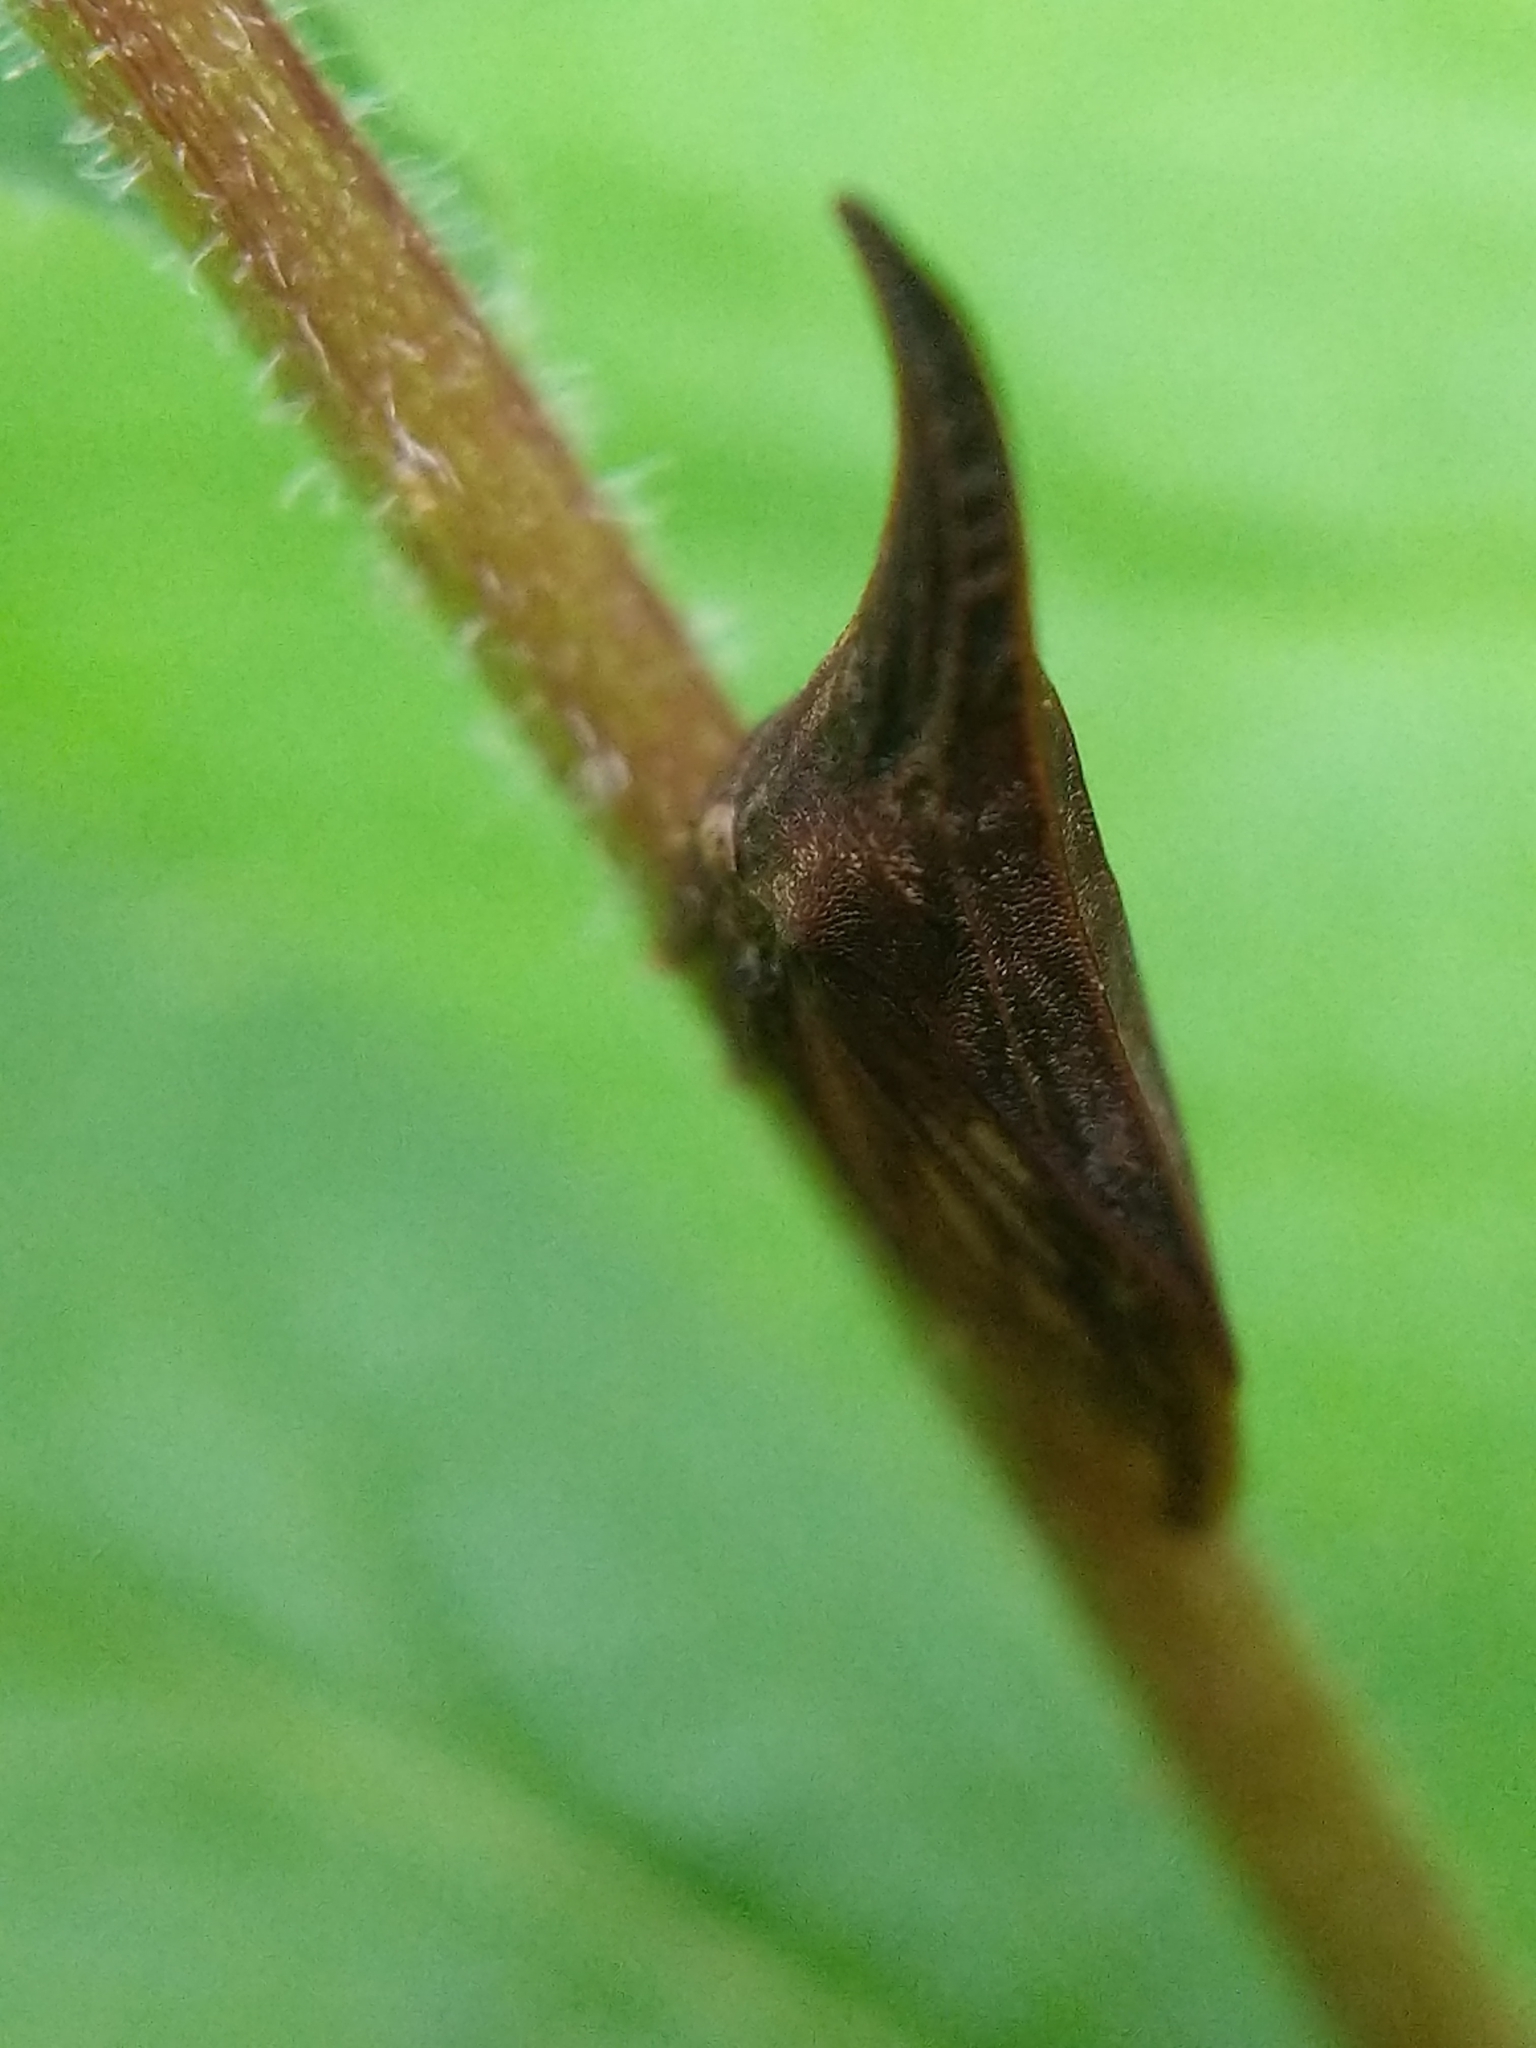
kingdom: Animalia
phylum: Arthropoda
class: Insecta
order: Hemiptera
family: Membracidae
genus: Enchenopa
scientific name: Enchenopa latipes
